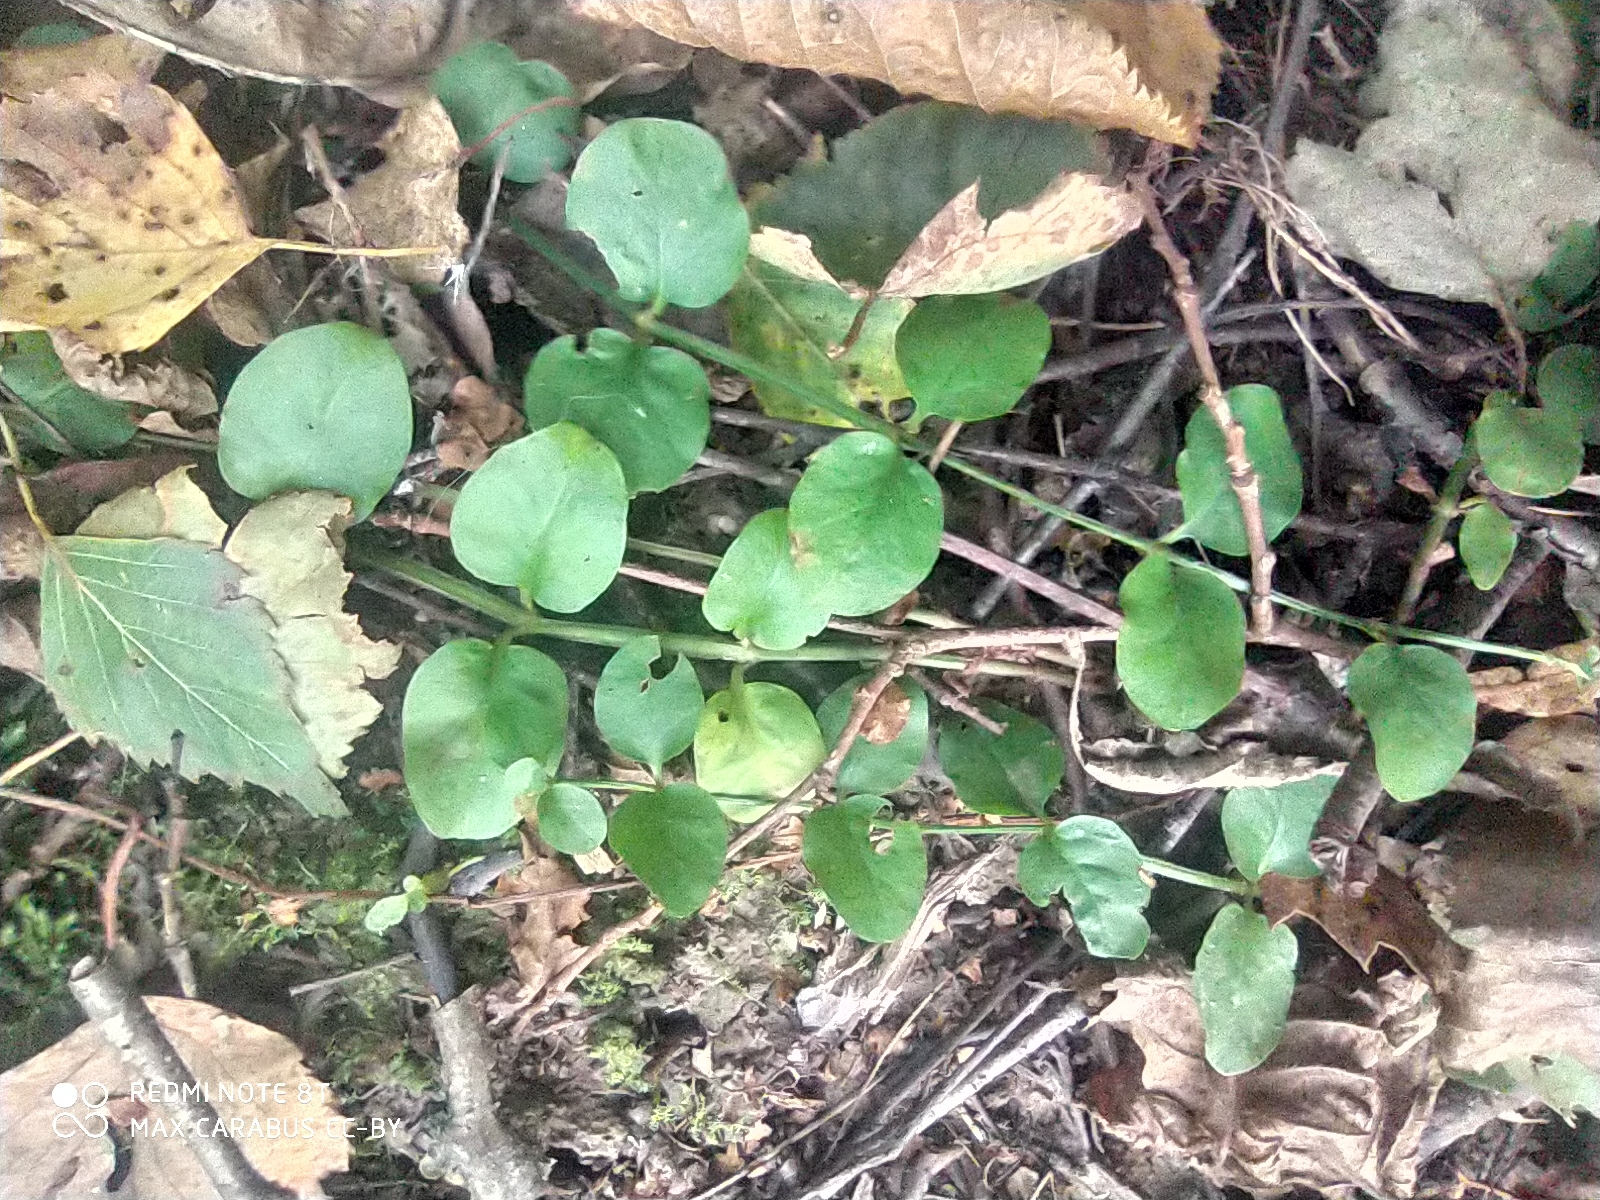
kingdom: Plantae
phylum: Tracheophyta
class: Magnoliopsida
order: Ericales
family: Primulaceae
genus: Lysimachia
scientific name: Lysimachia nummularia
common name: Moneywort
